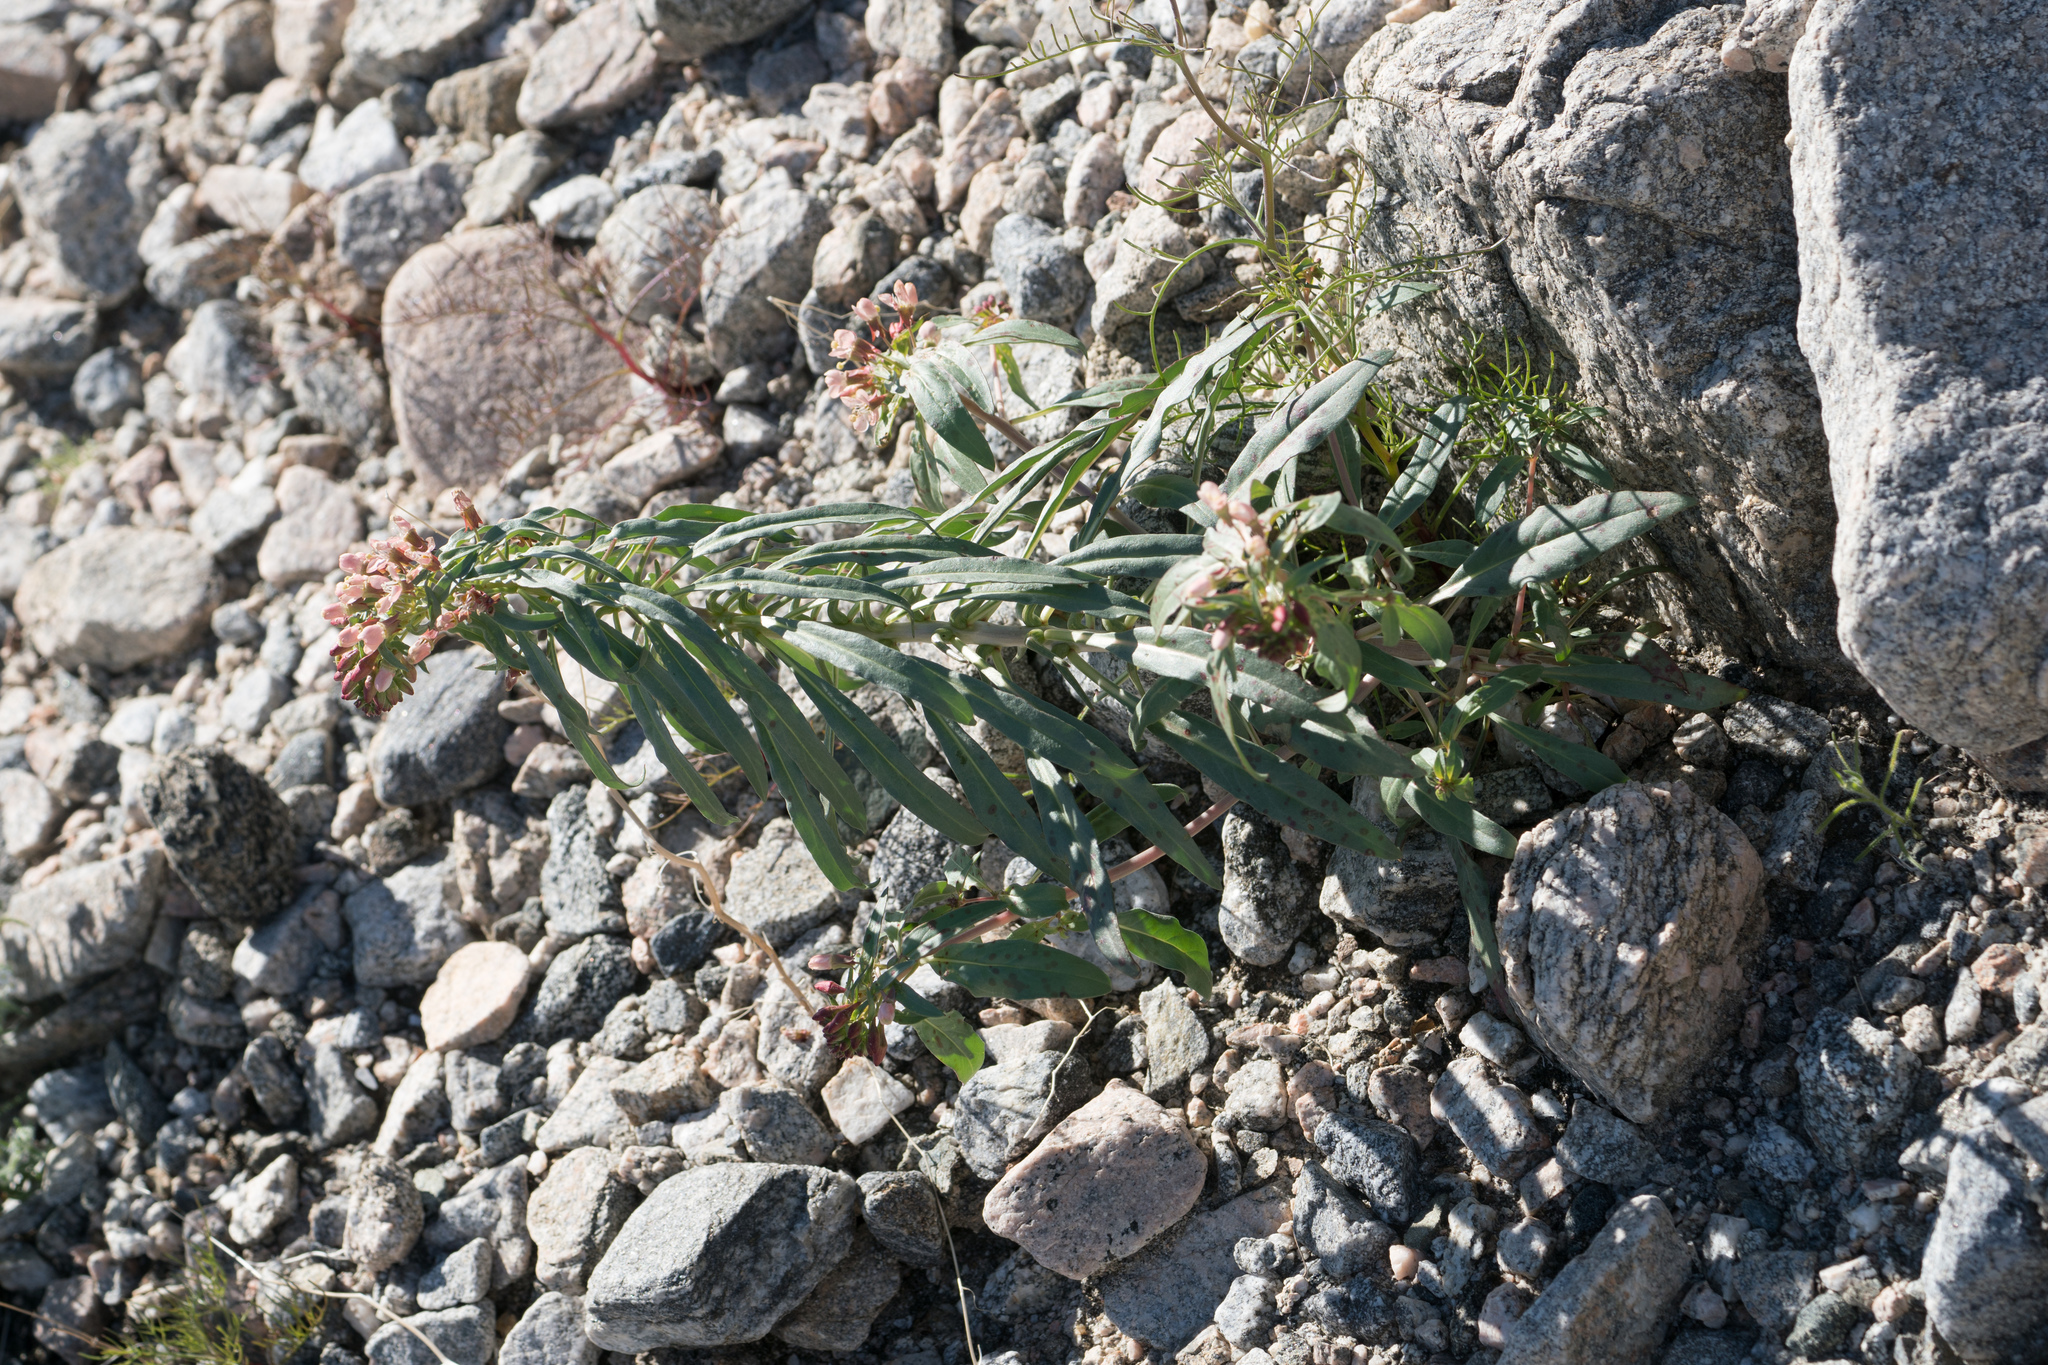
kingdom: Plantae
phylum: Tracheophyta
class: Magnoliopsida
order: Myrtales
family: Onagraceae
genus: Eremothera
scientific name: Eremothera boothii
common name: Booth's evening primrose
